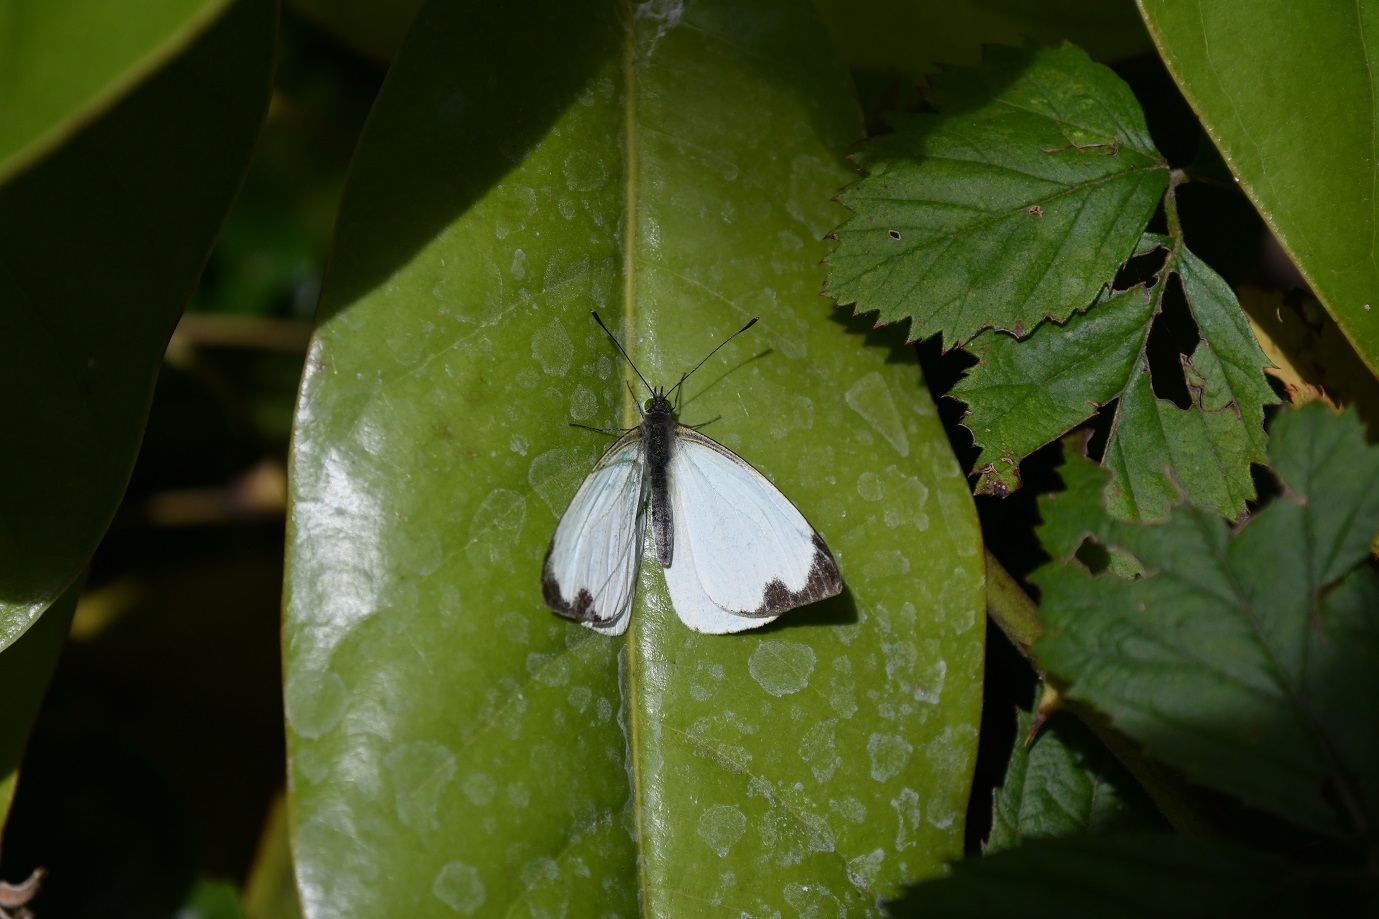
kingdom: Animalia
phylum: Arthropoda
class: Insecta
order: Lepidoptera
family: Pieridae
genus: Leptophobia
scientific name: Leptophobia aripa
